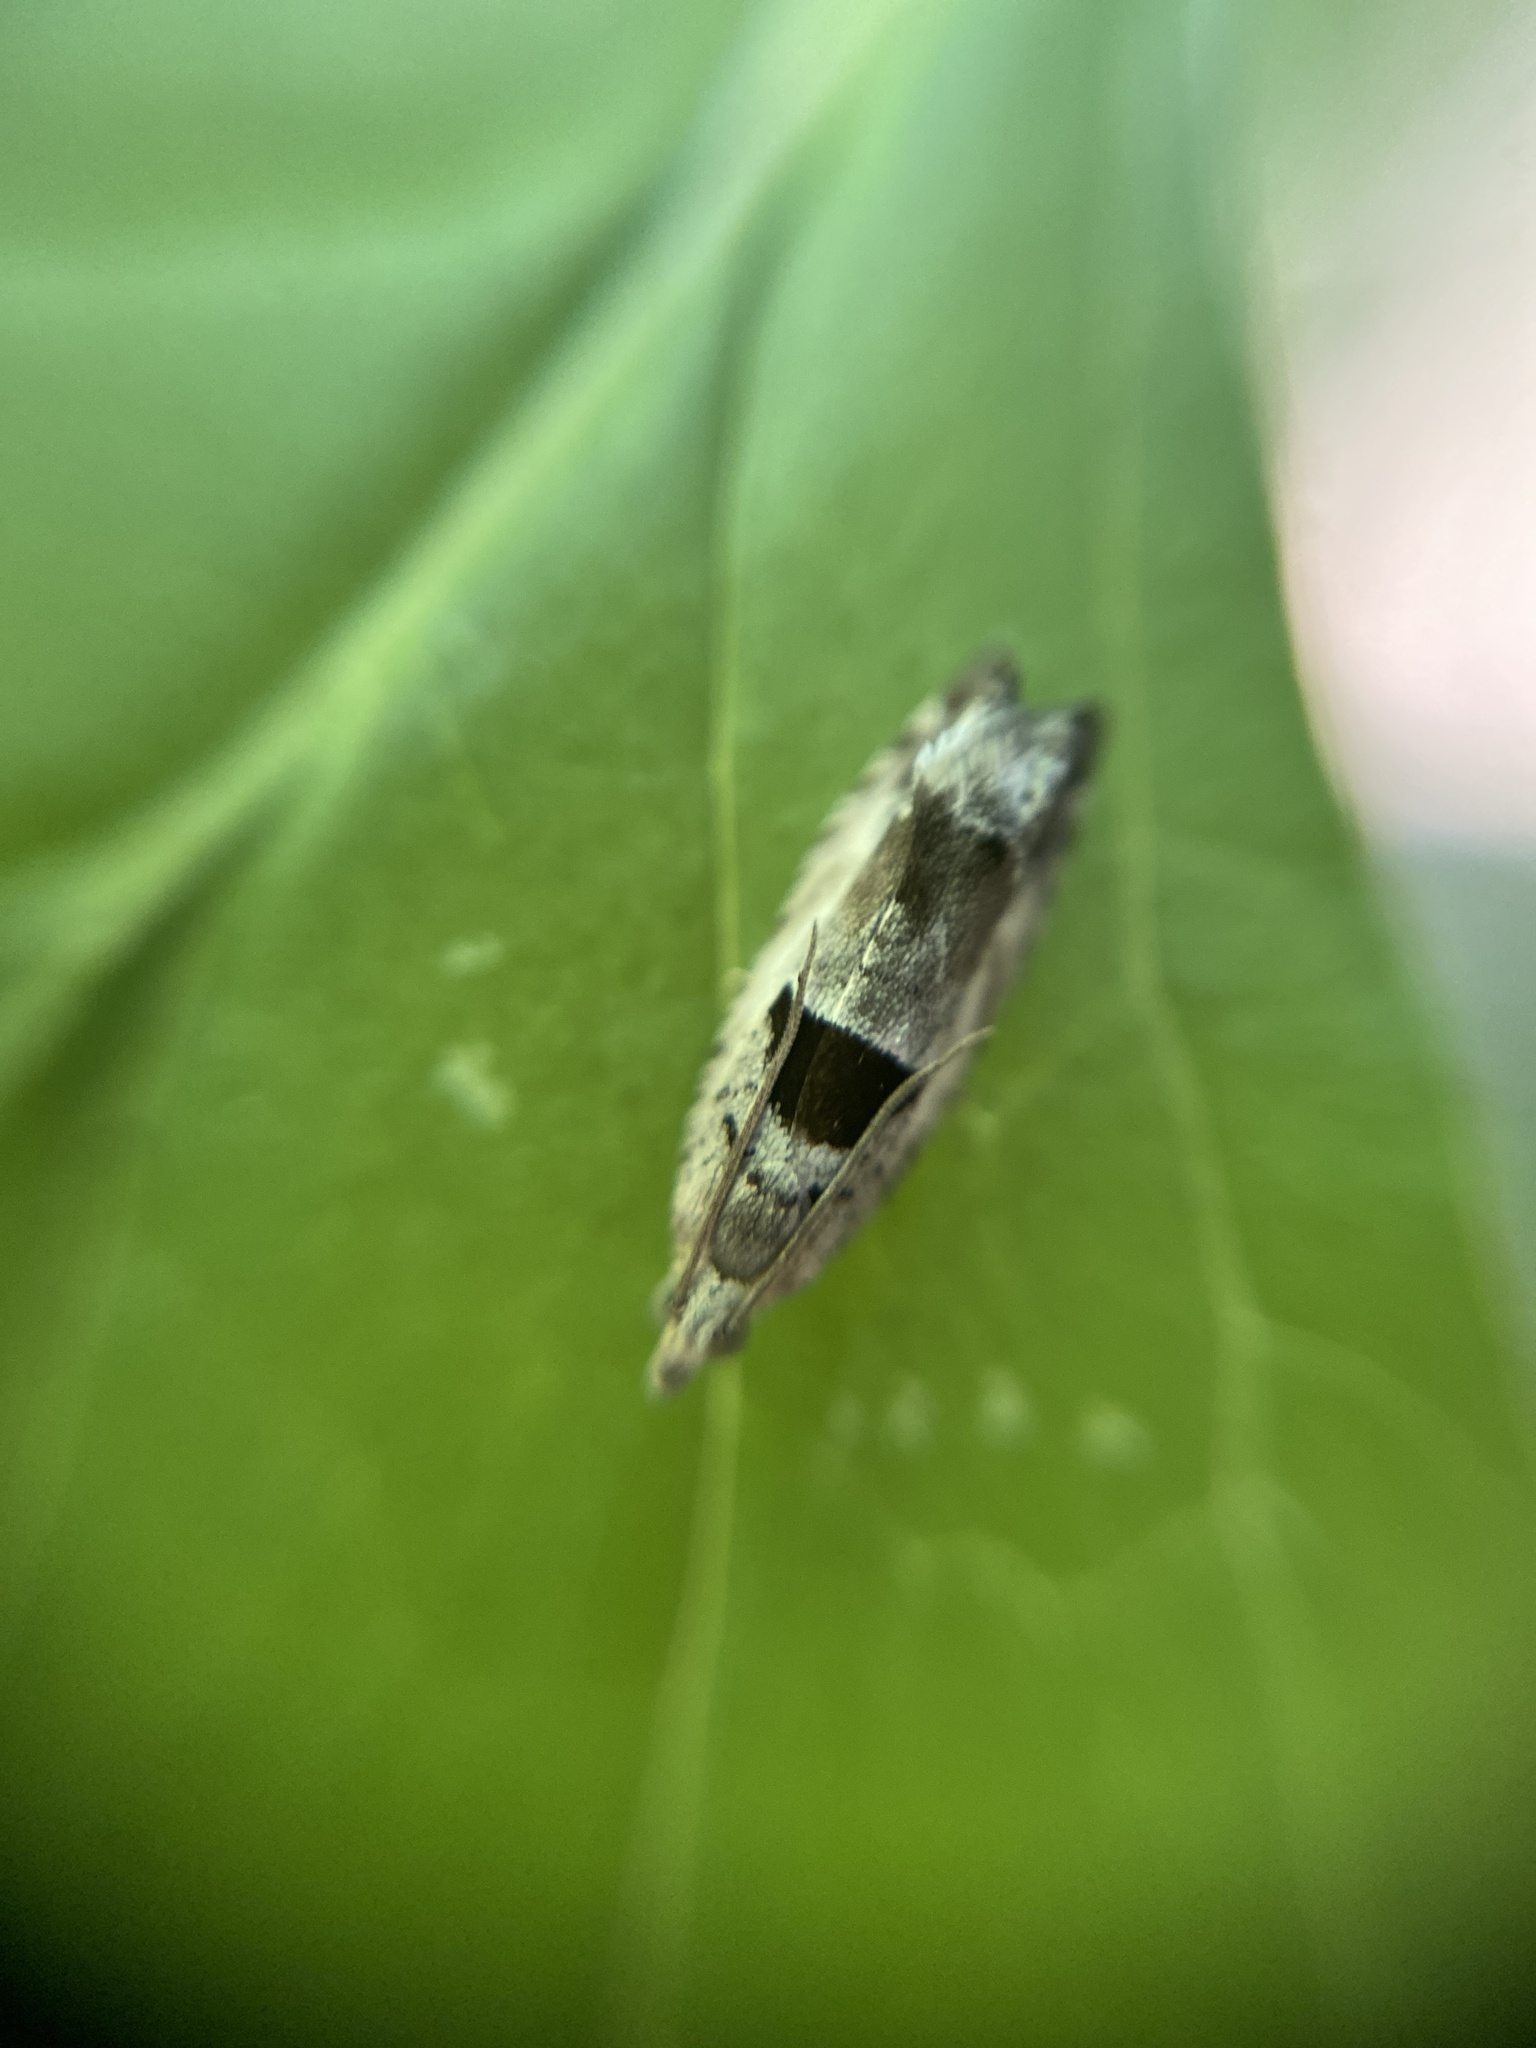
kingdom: Animalia
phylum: Arthropoda
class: Insecta
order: Lepidoptera
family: Tortricidae
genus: Epinotia
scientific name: Epinotia ramella
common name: Small birch bell
